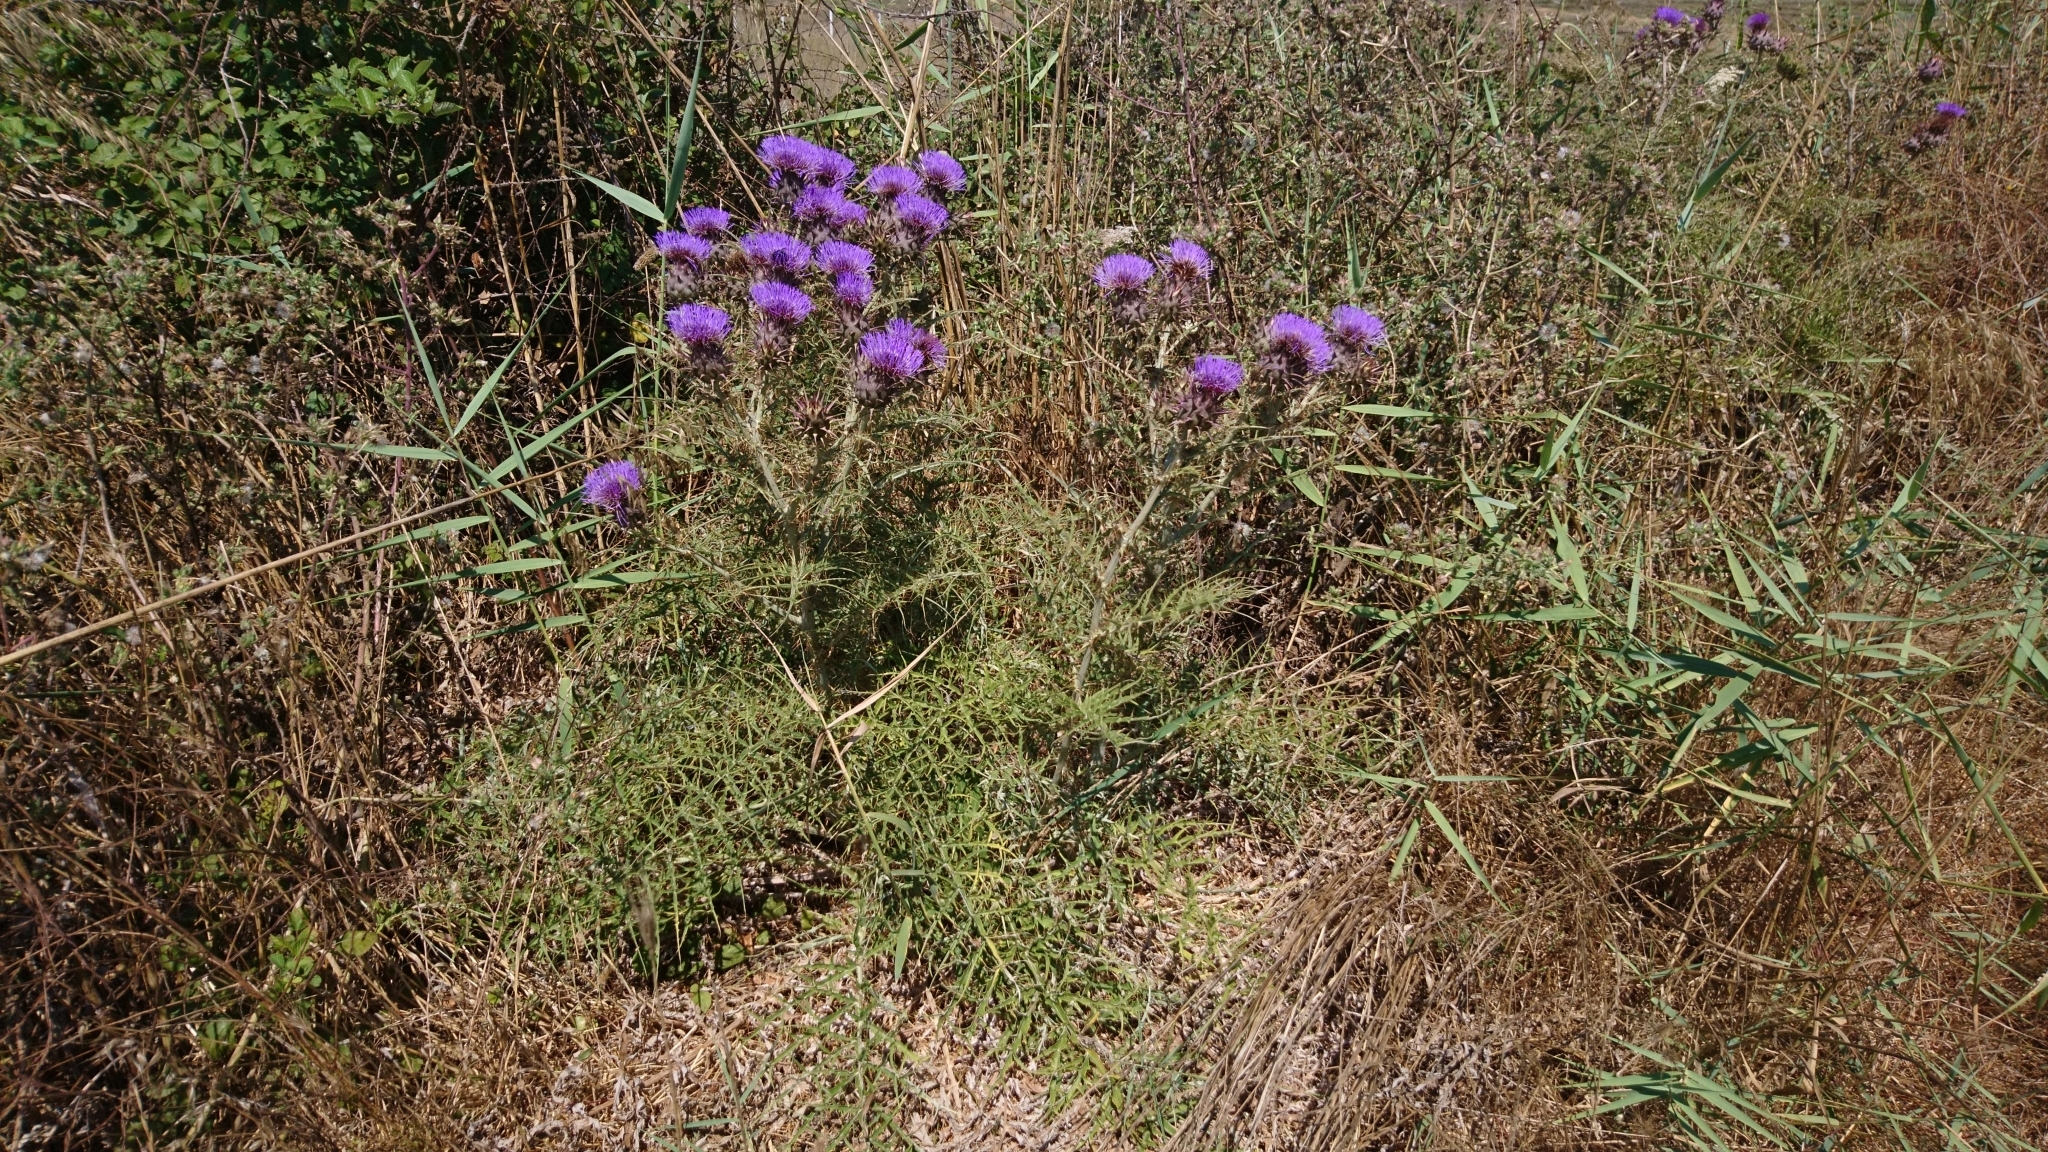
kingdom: Plantae
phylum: Tracheophyta
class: Magnoliopsida
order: Asterales
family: Asteraceae
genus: Cirsium
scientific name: Cirsium vulgare
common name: Bull thistle
